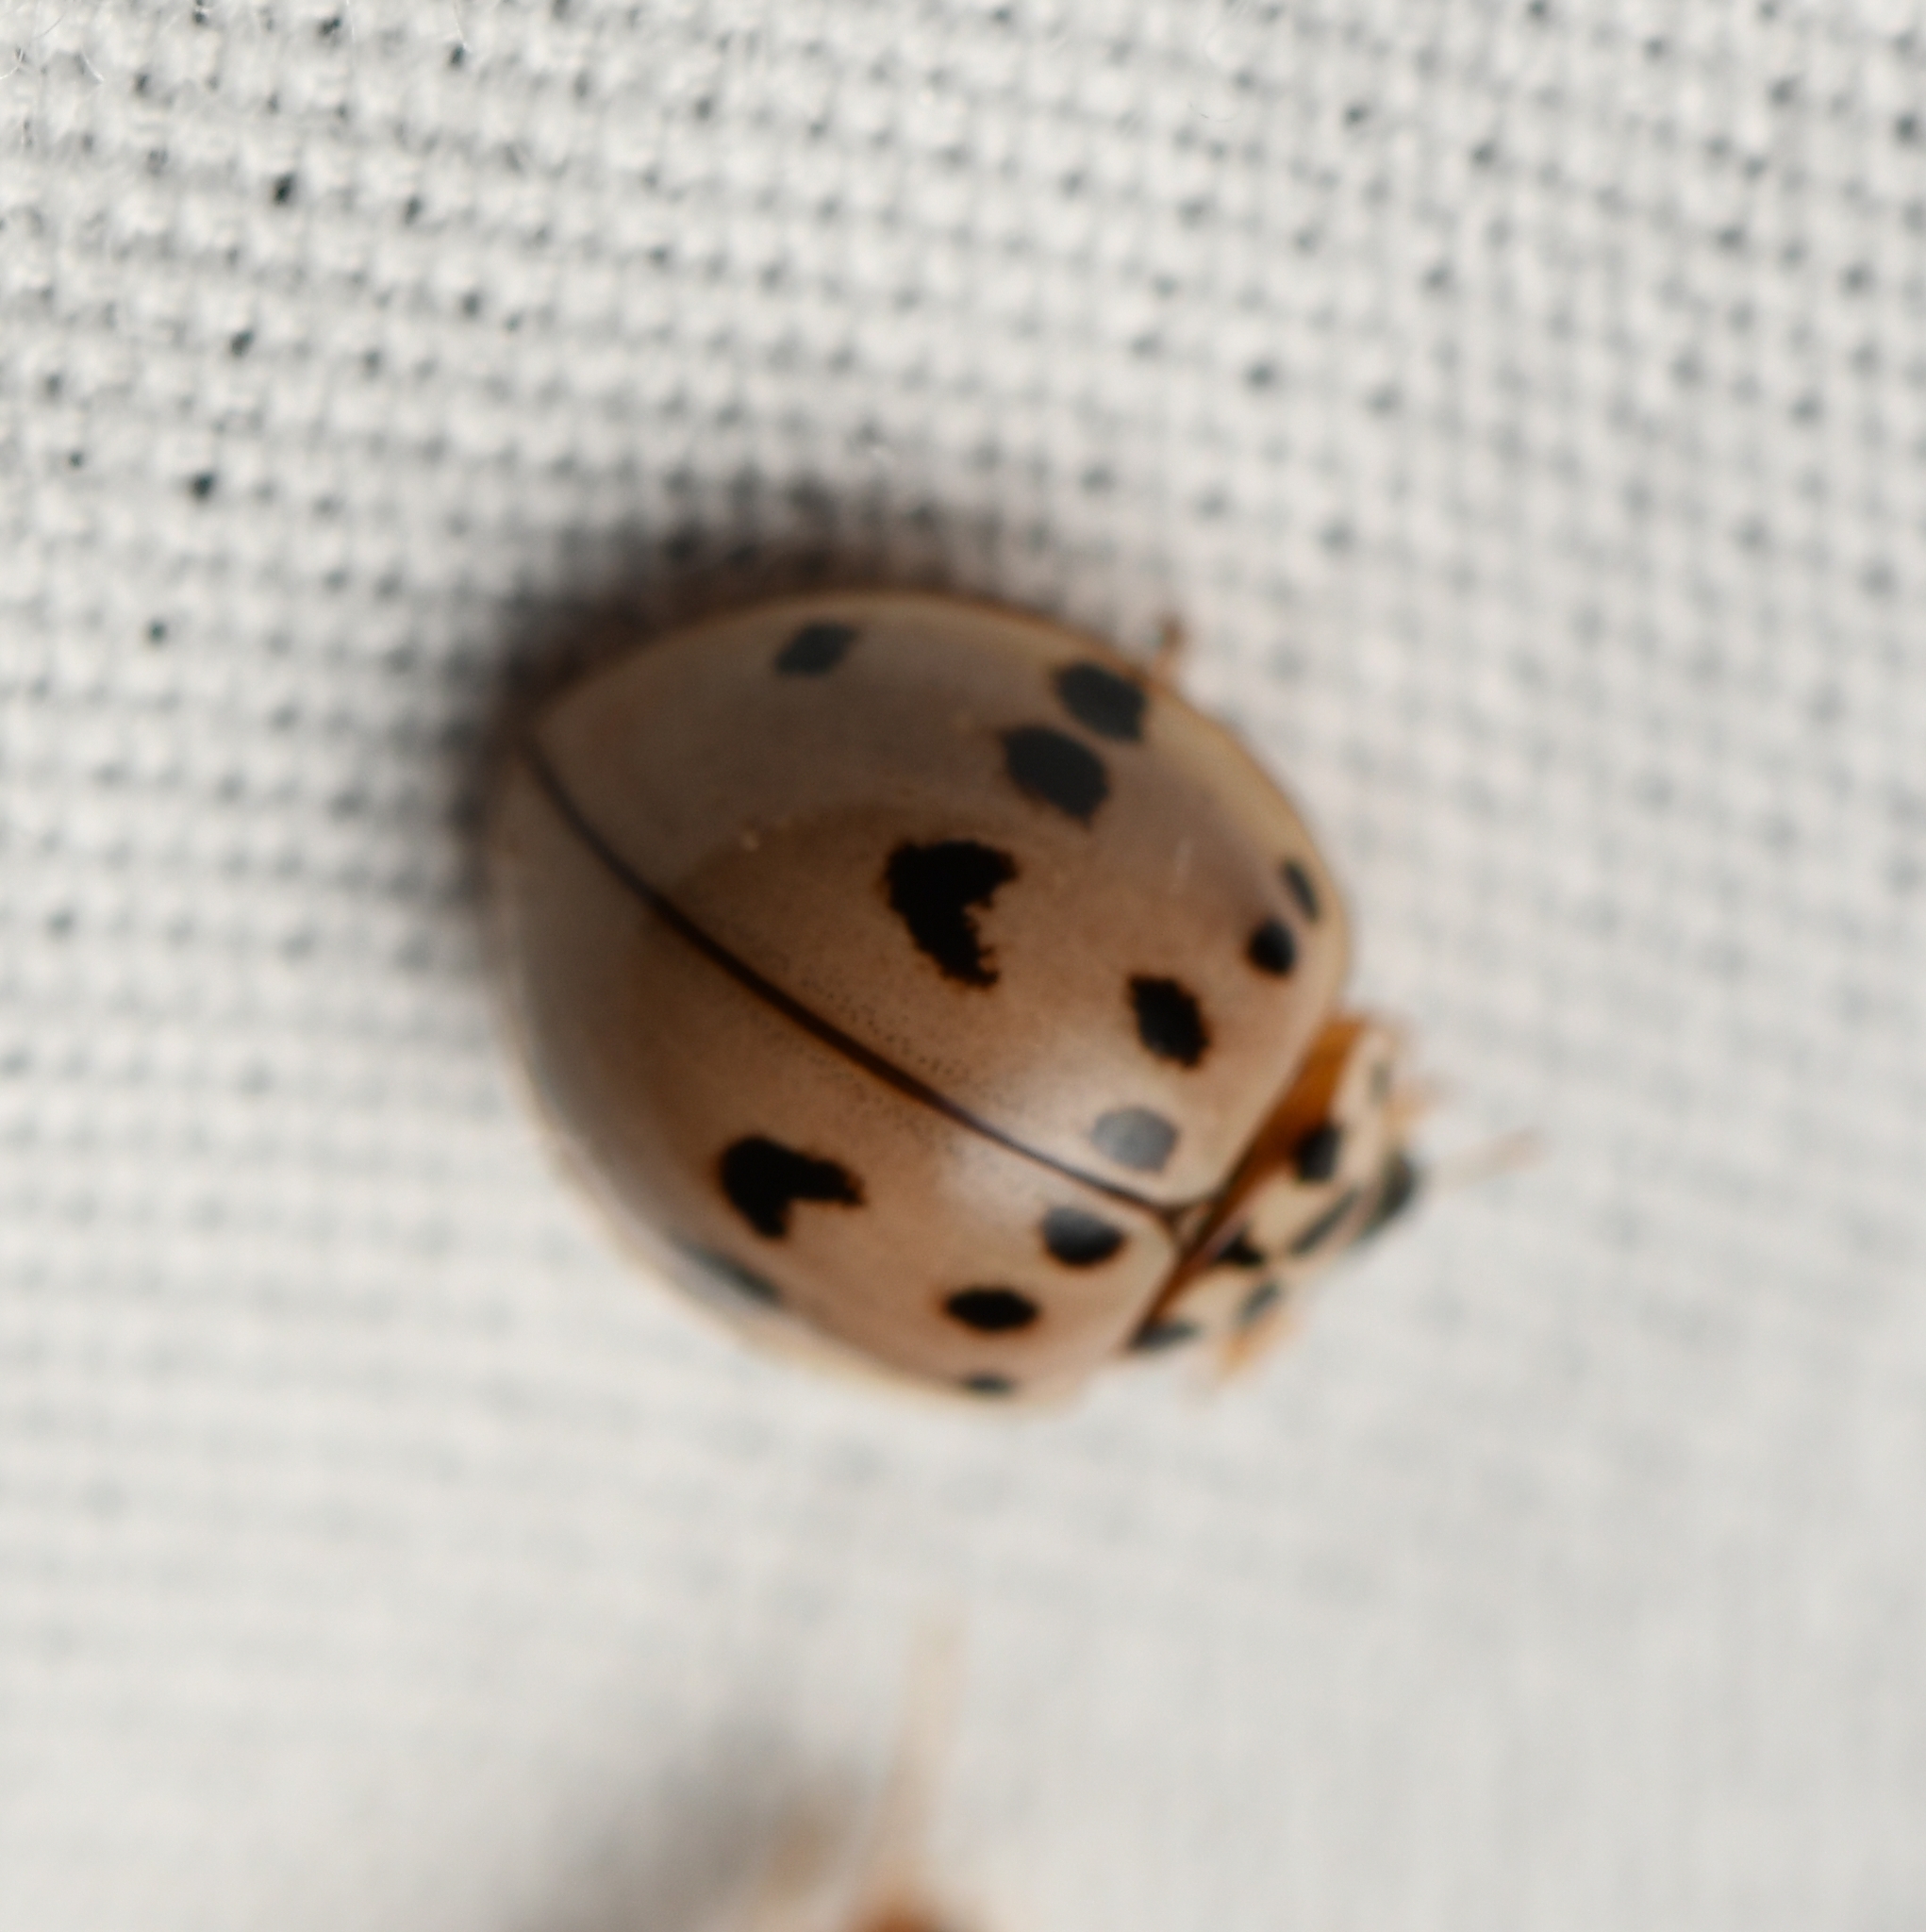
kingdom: Animalia
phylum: Arthropoda
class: Insecta
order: Coleoptera
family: Coccinellidae
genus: Olla
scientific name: Olla v-nigrum
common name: Ashy gray lady beetle
